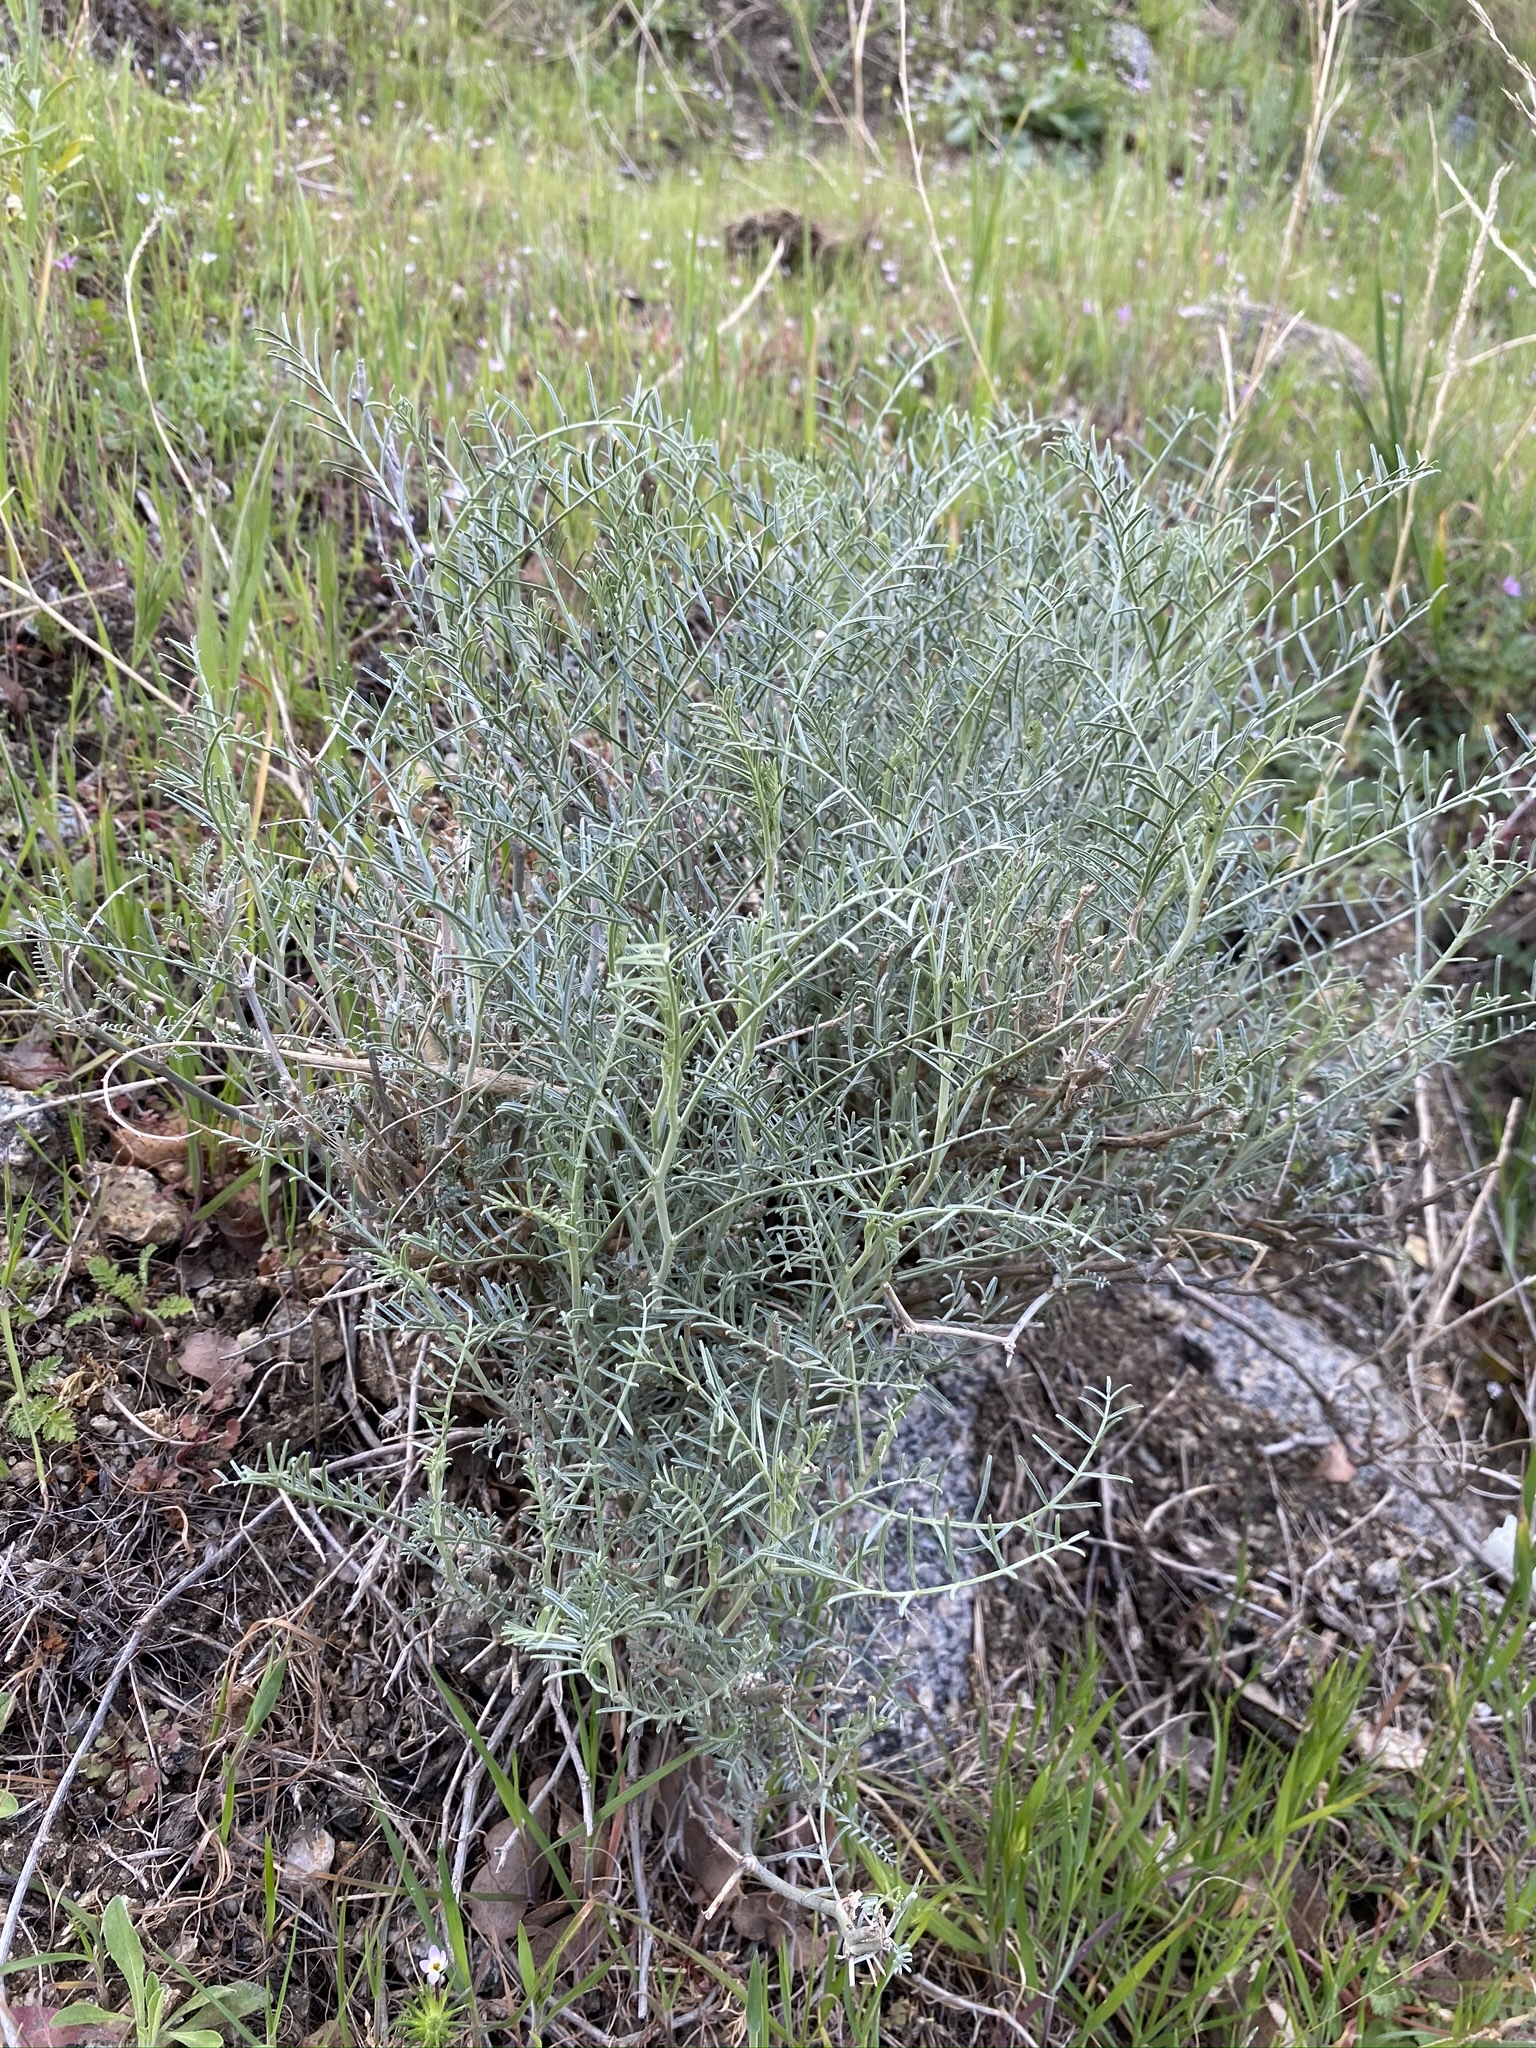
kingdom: Plantae
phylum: Tracheophyta
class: Magnoliopsida
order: Fabales
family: Fabaceae
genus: Astragalus
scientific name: Astragalus pachypus
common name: Thick-pod milkvetch
